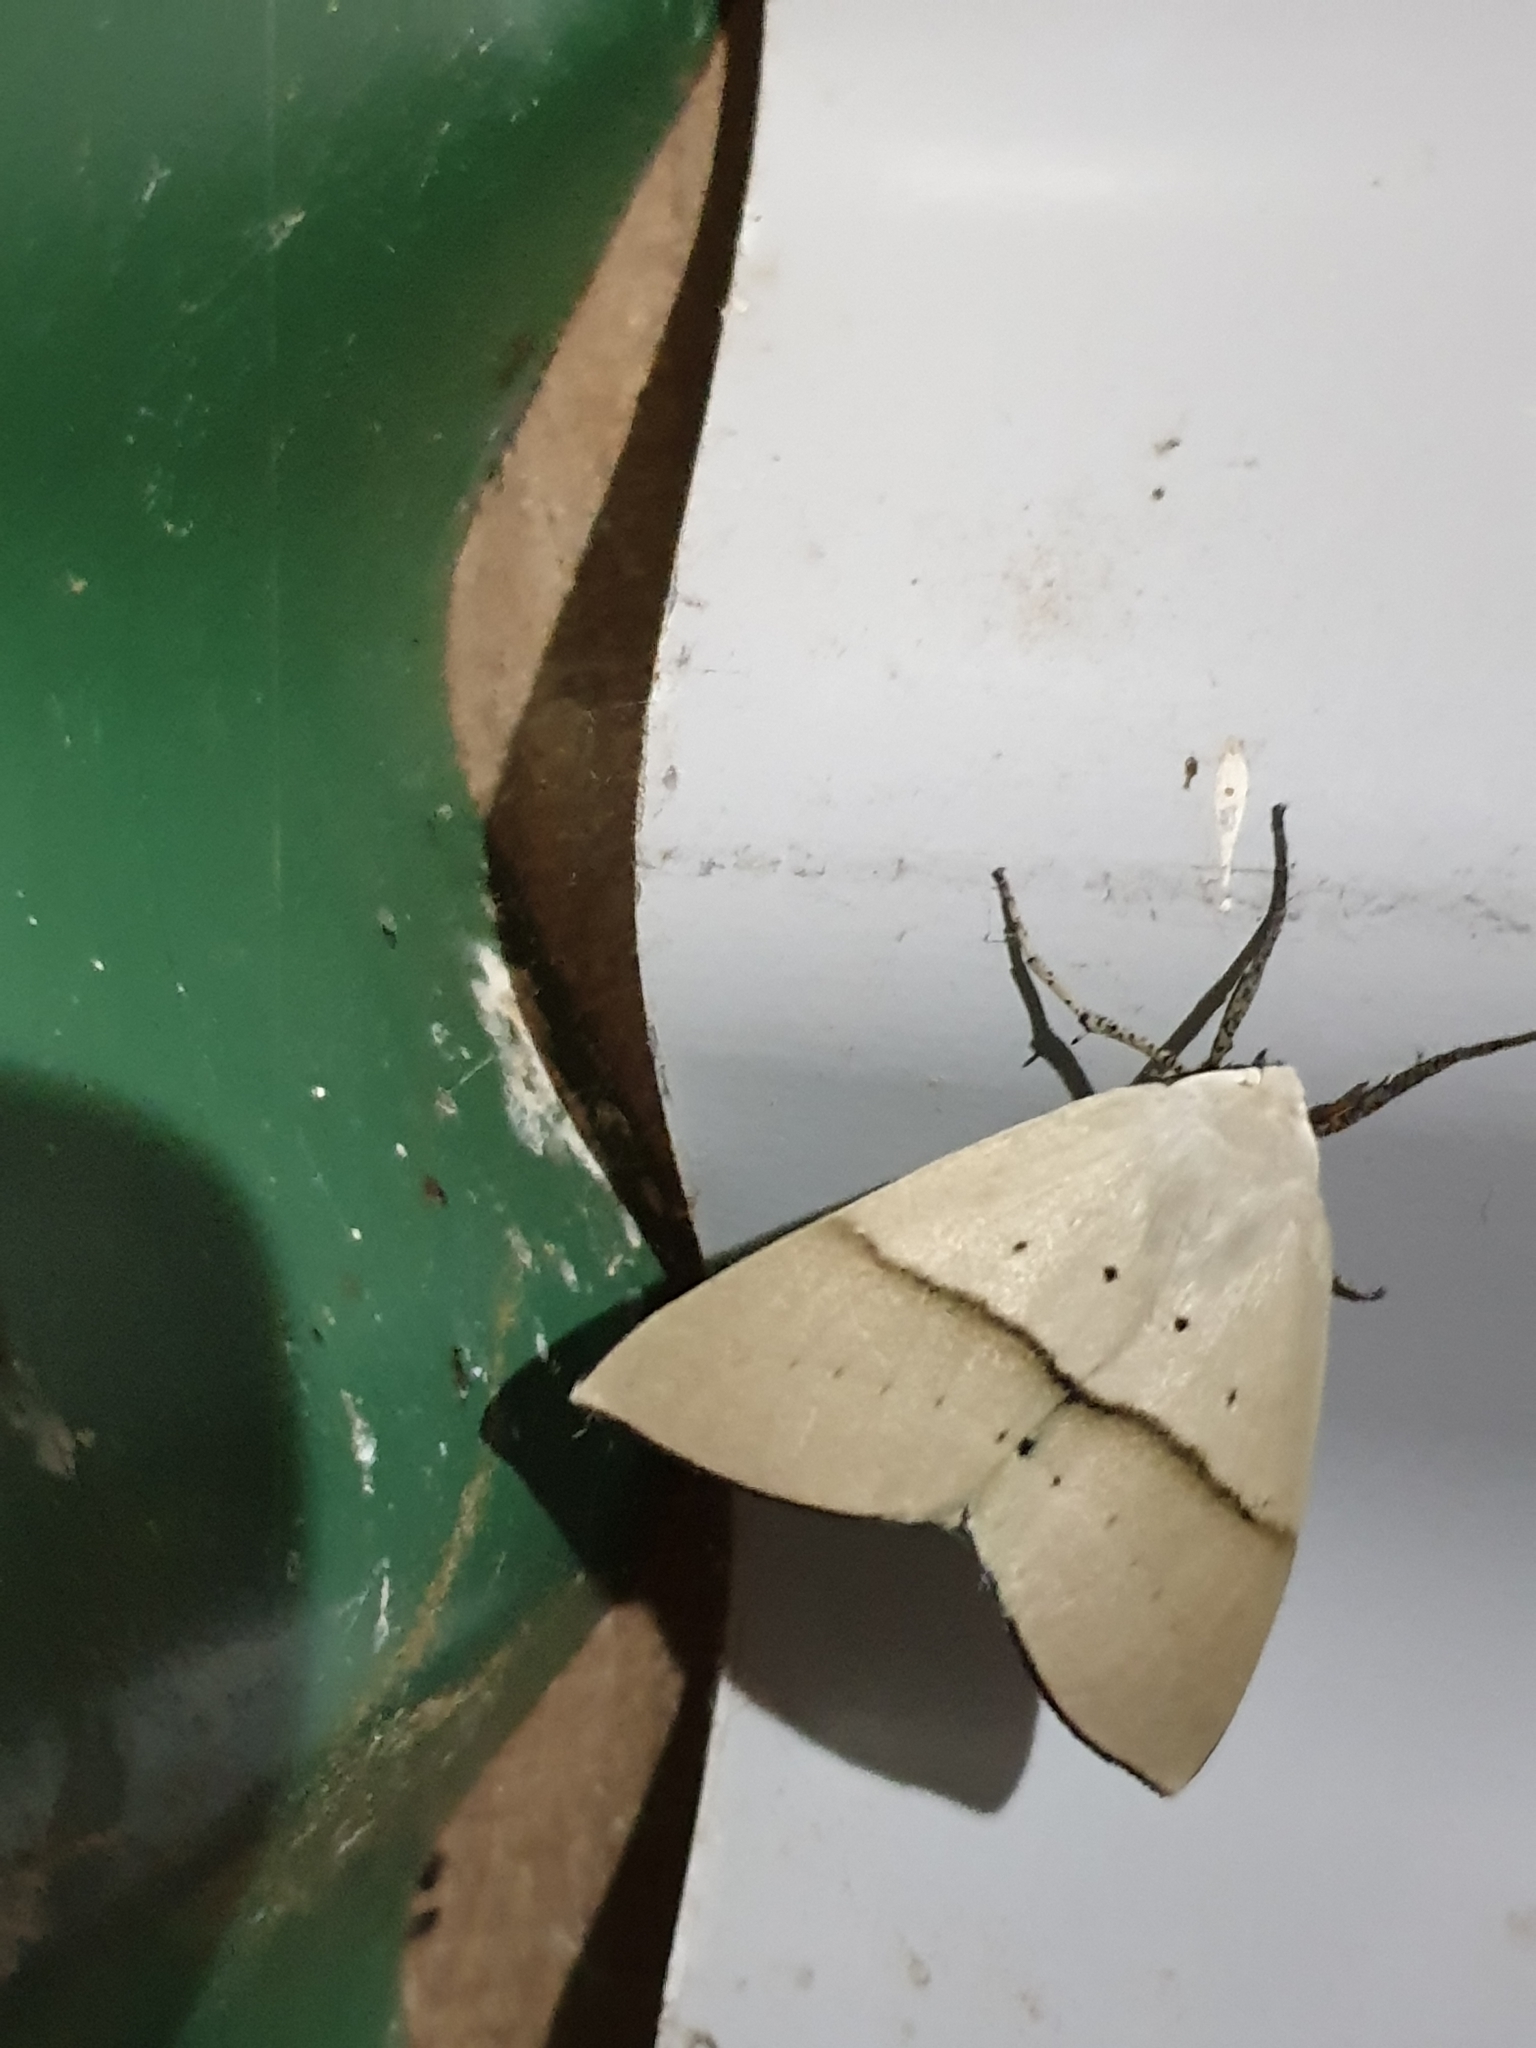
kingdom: Animalia
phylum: Arthropoda
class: Insecta
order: Lepidoptera
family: Geometridae
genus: Gastrophora
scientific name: Gastrophora henricaria
